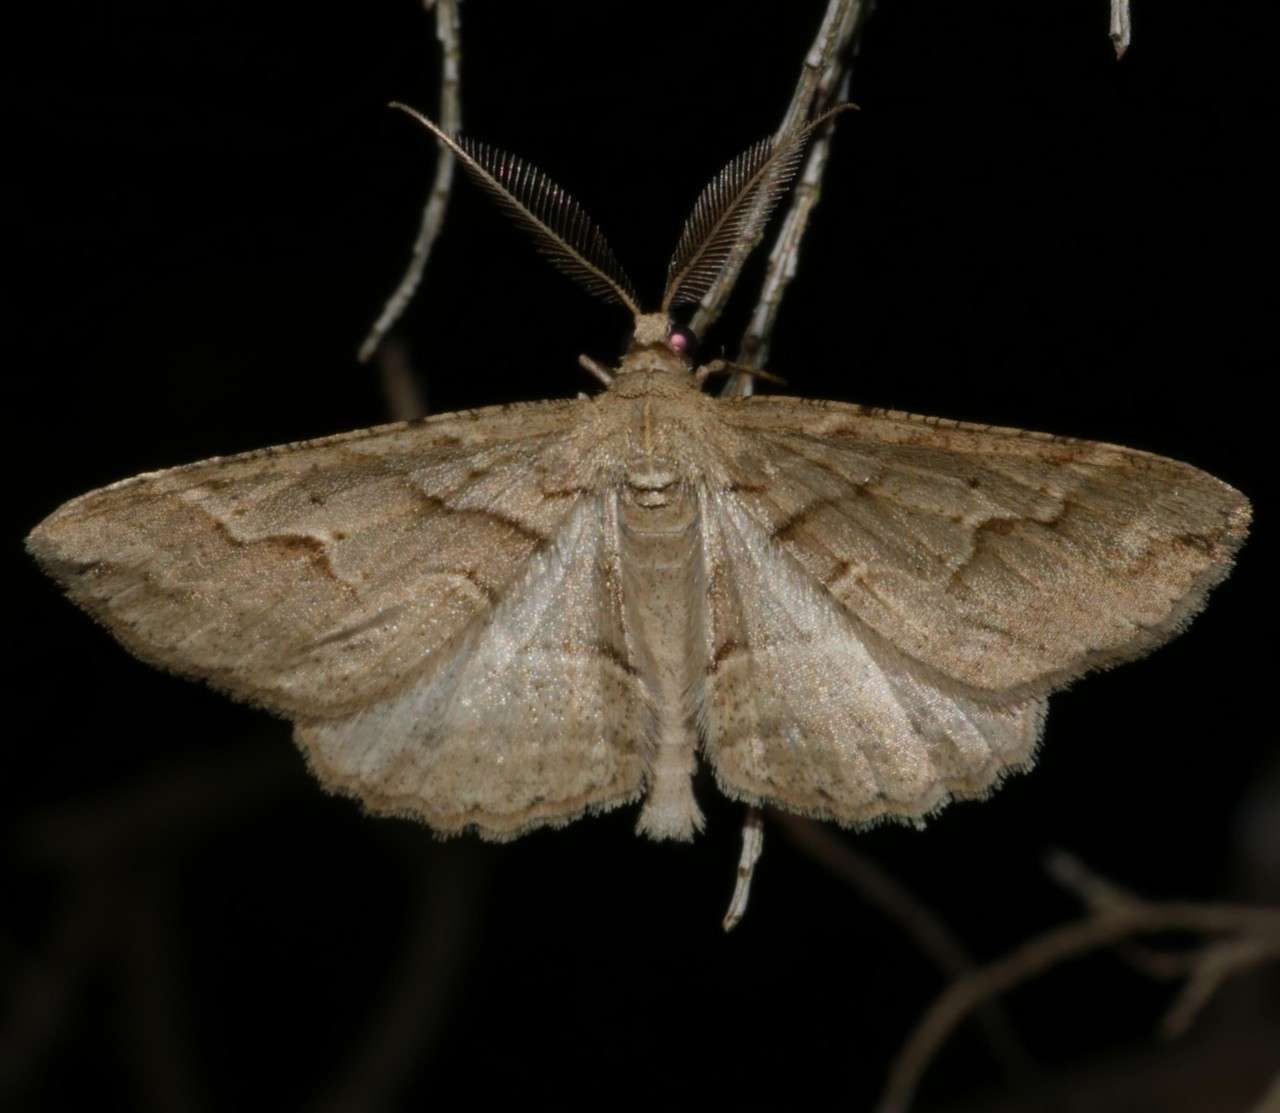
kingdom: Animalia
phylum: Arthropoda
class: Insecta
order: Lepidoptera
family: Geometridae
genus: Syneora
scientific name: Syneora fractata
